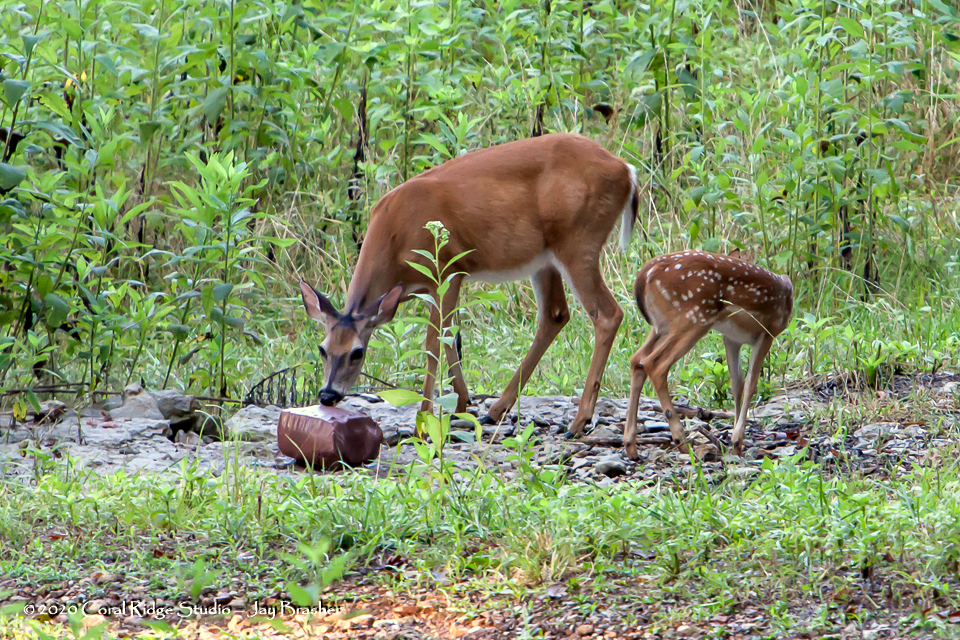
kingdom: Animalia
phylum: Chordata
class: Mammalia
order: Artiodactyla
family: Cervidae
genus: Odocoileus
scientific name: Odocoileus virginianus
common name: White-tailed deer
